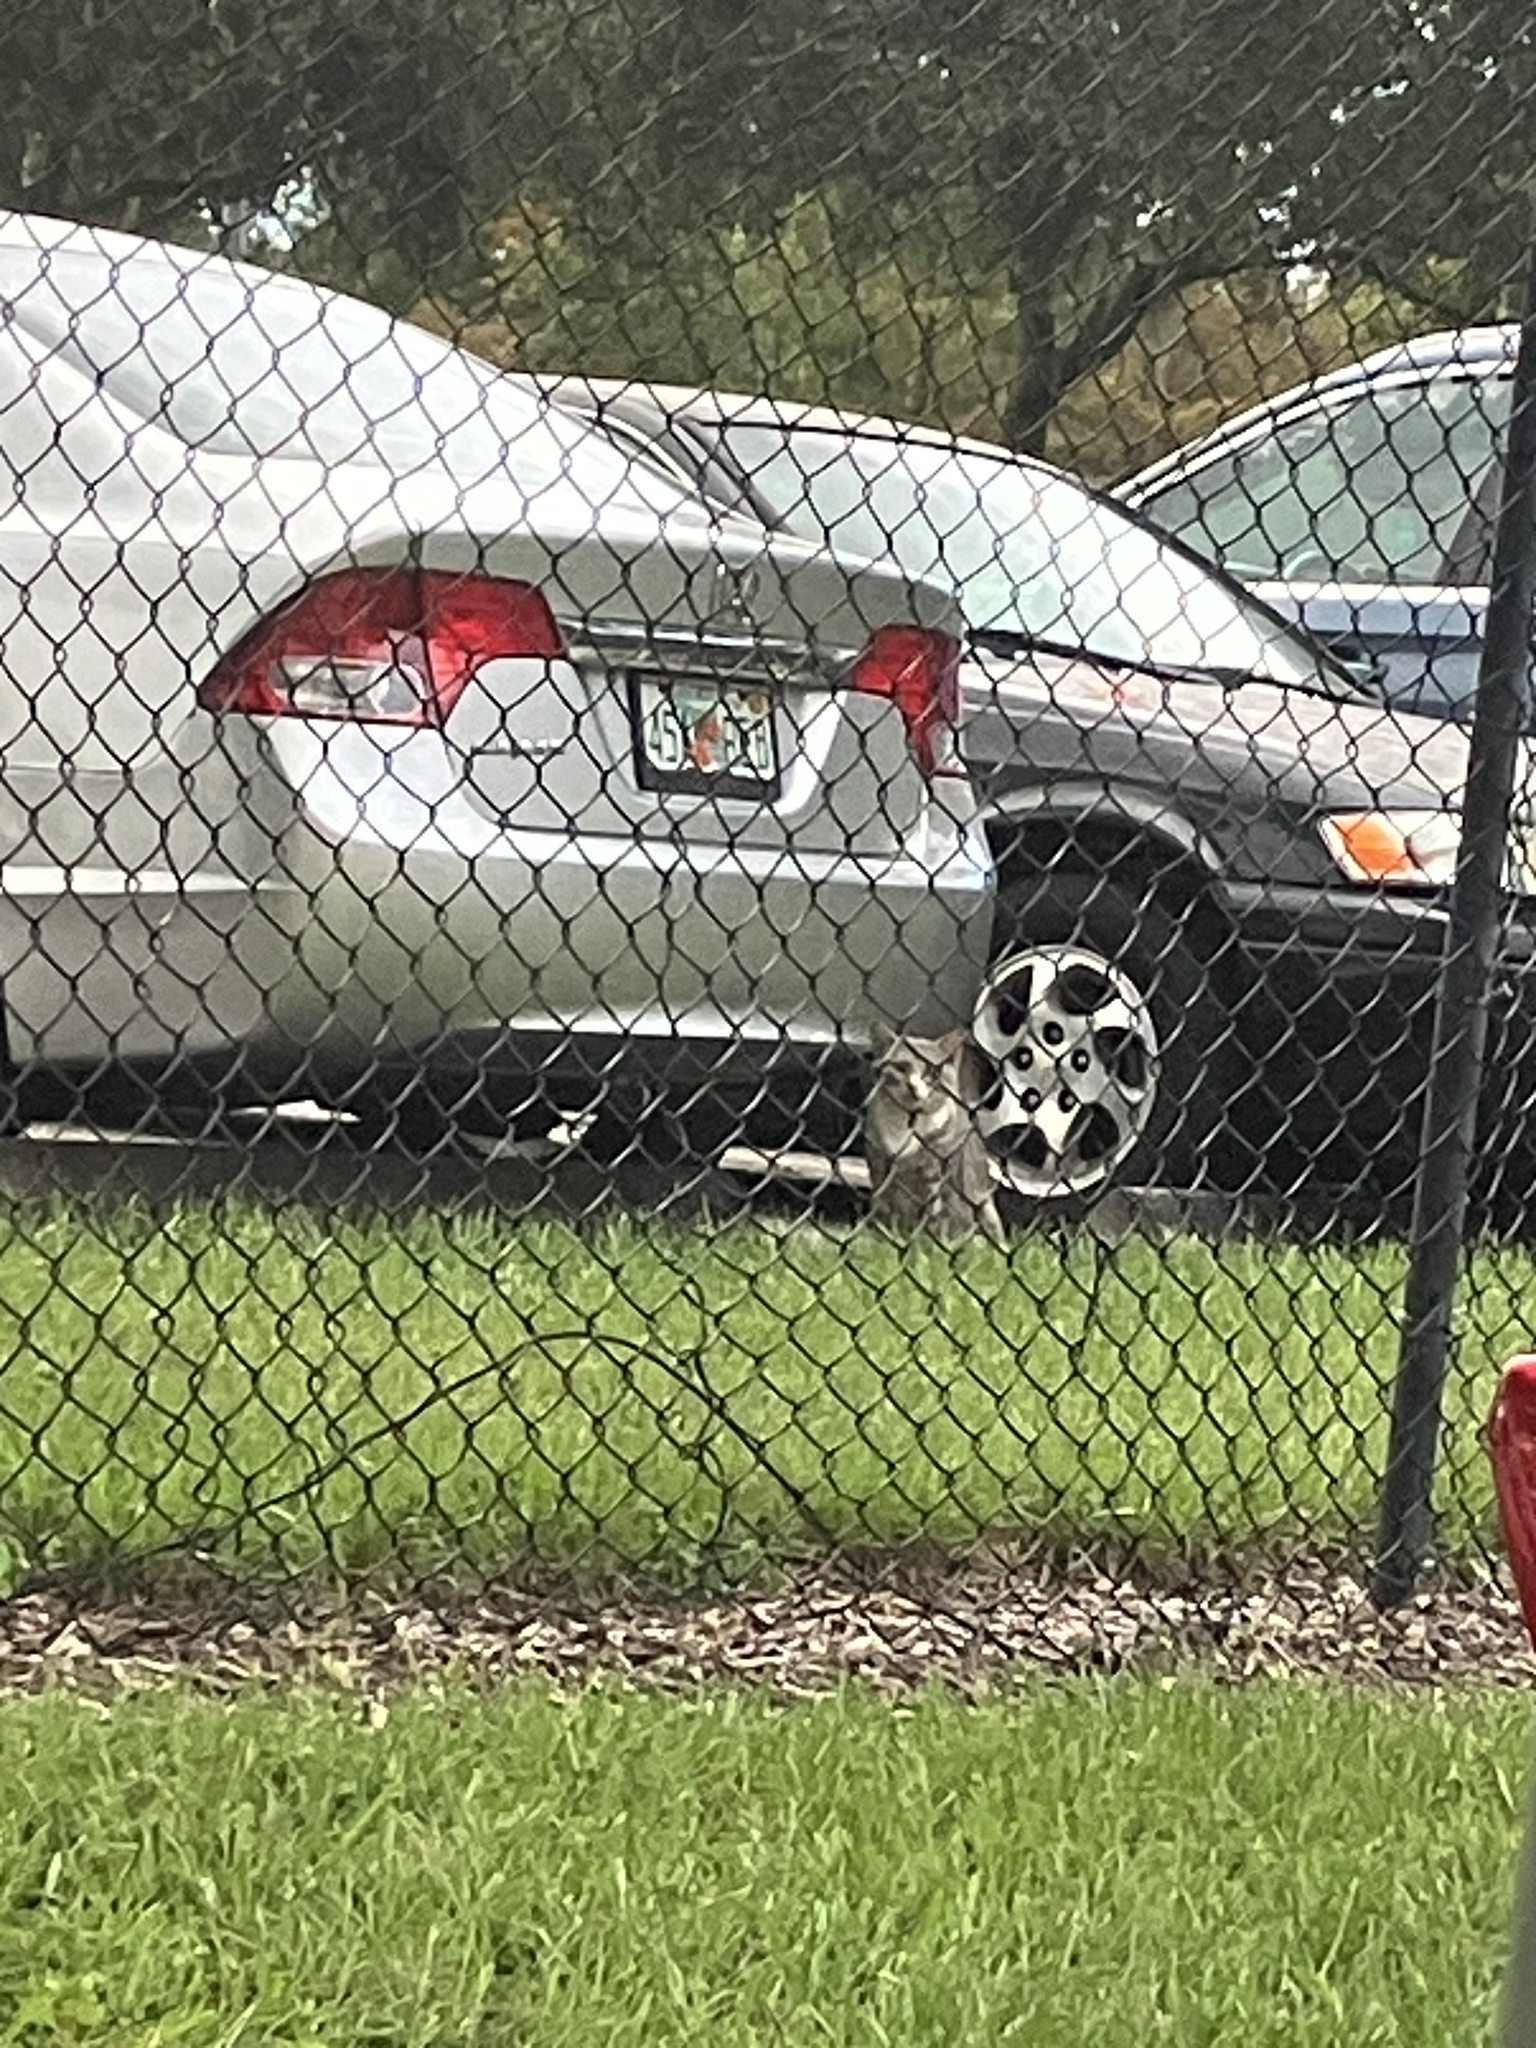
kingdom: Animalia
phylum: Chordata
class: Mammalia
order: Carnivora
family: Felidae
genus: Felis
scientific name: Felis catus
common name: Domestic cat
